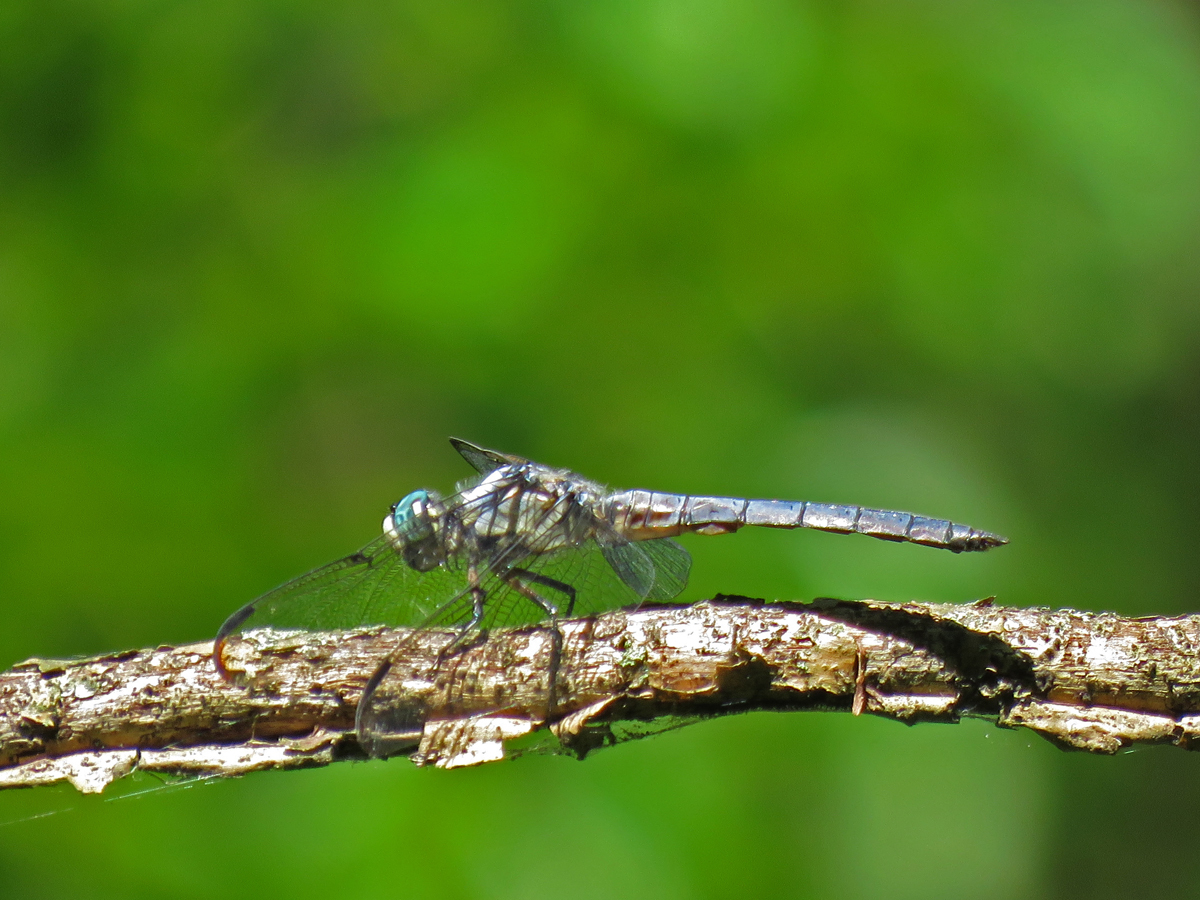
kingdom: Animalia
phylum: Arthropoda
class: Insecta
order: Odonata
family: Libellulidae
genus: Libellula
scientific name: Libellula vibrans
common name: Great blue skimmer
